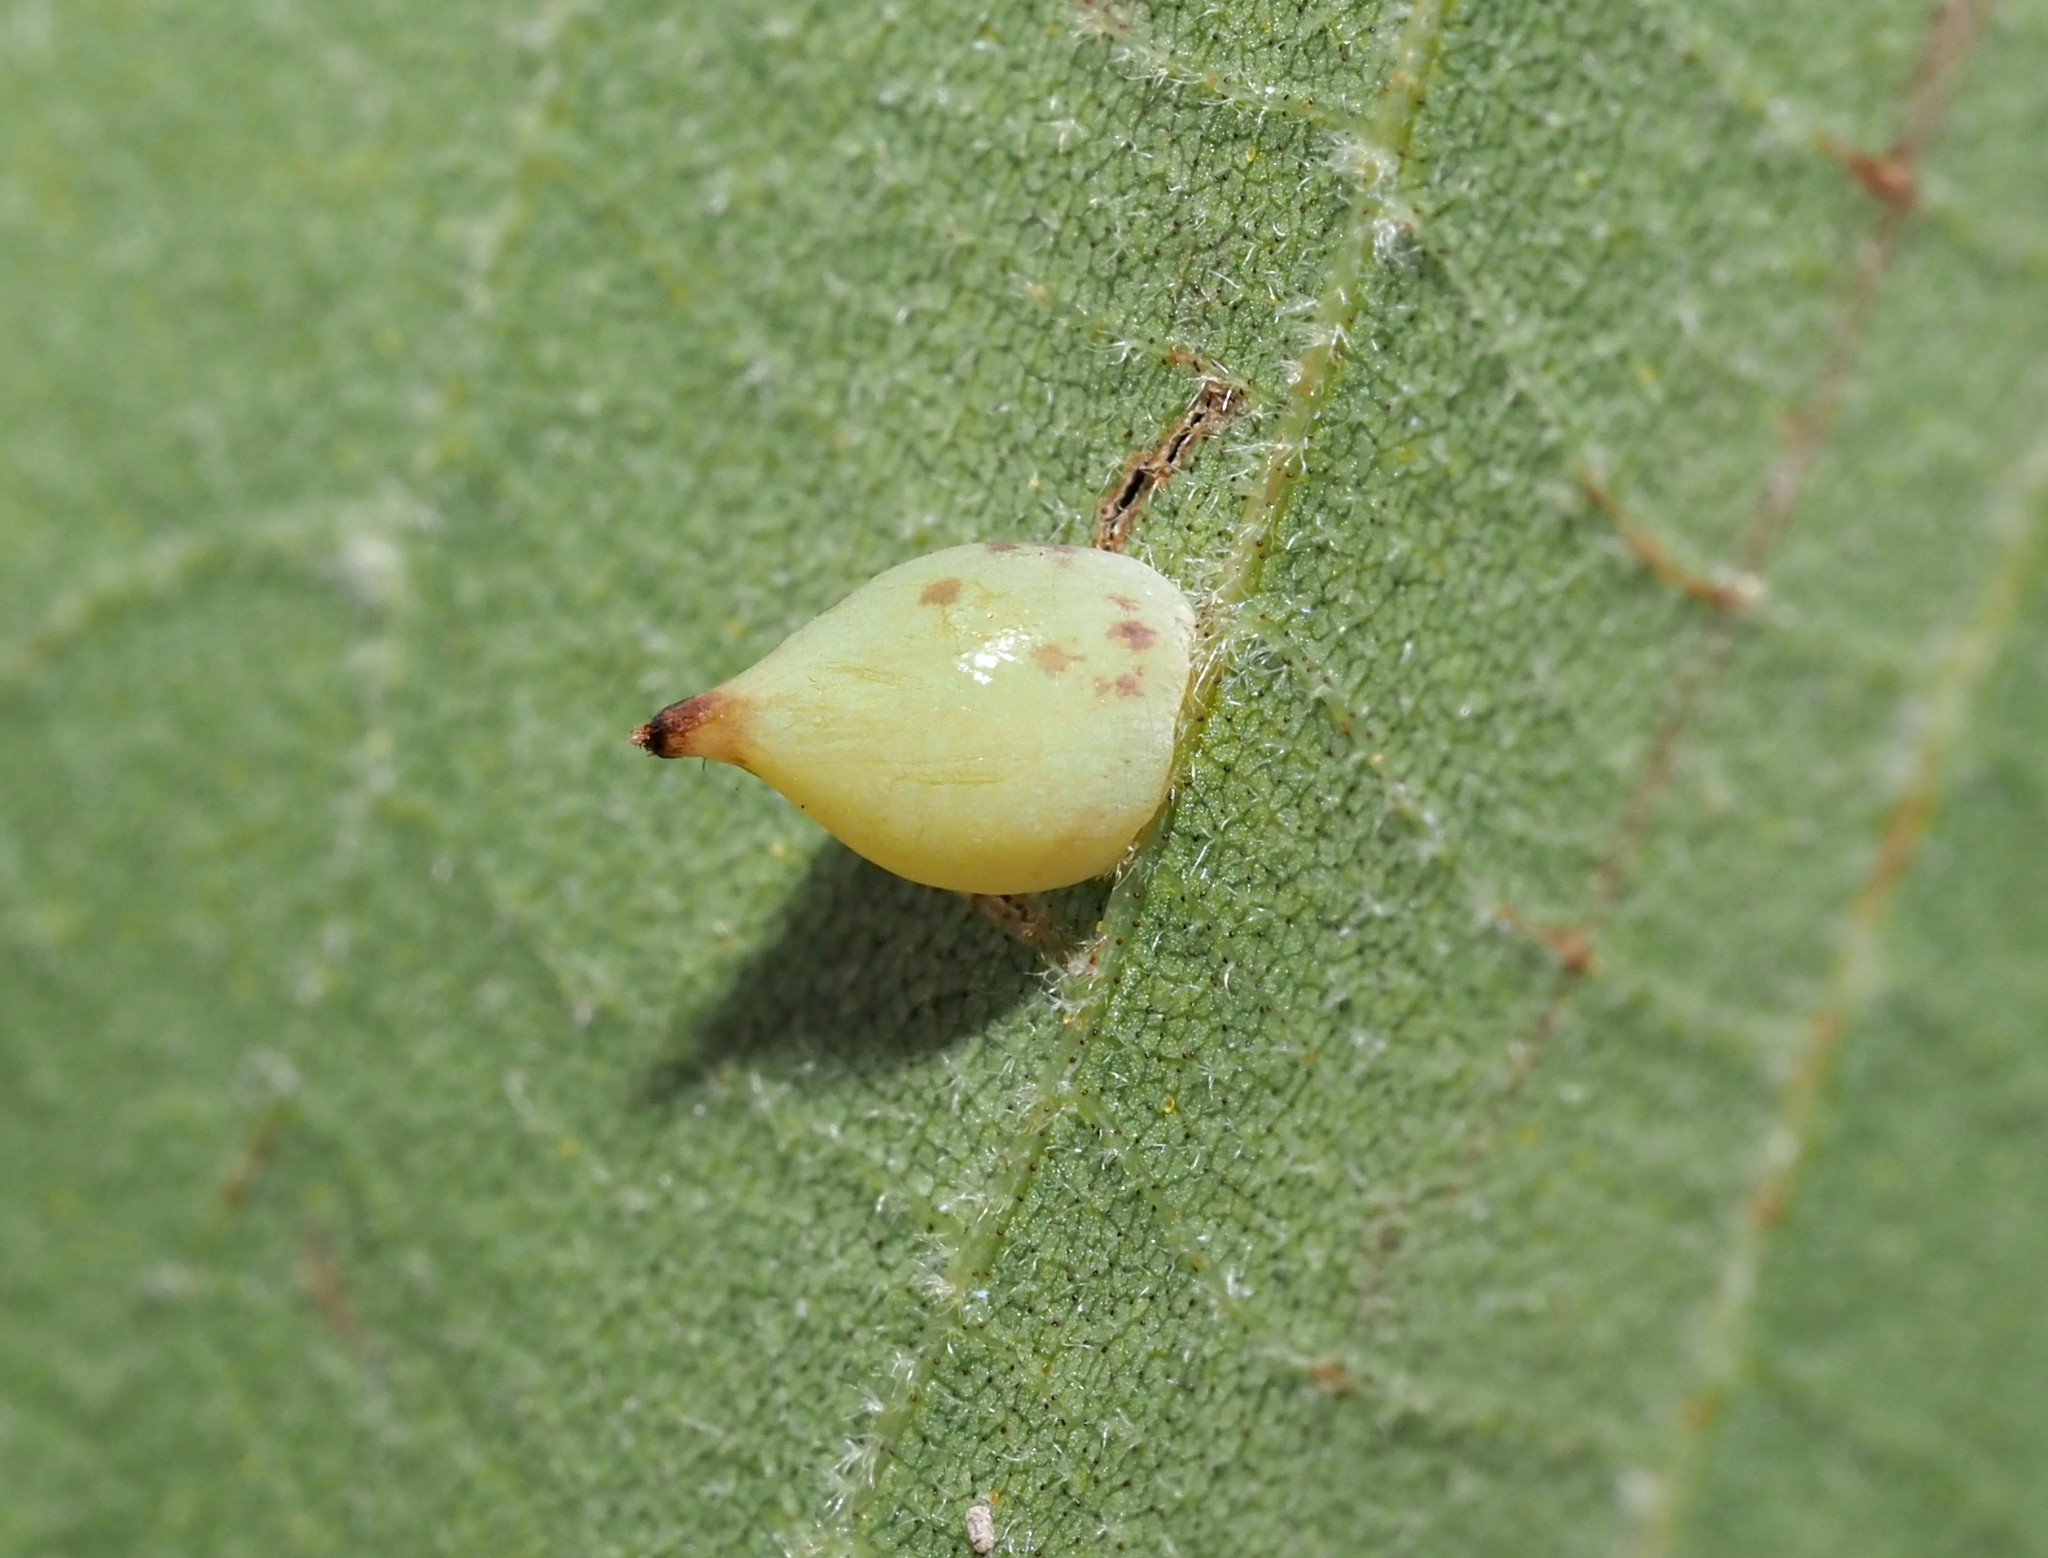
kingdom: Animalia
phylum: Arthropoda
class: Insecta
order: Diptera
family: Cecidomyiidae
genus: Caryomyia
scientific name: Caryomyia caryaecola
